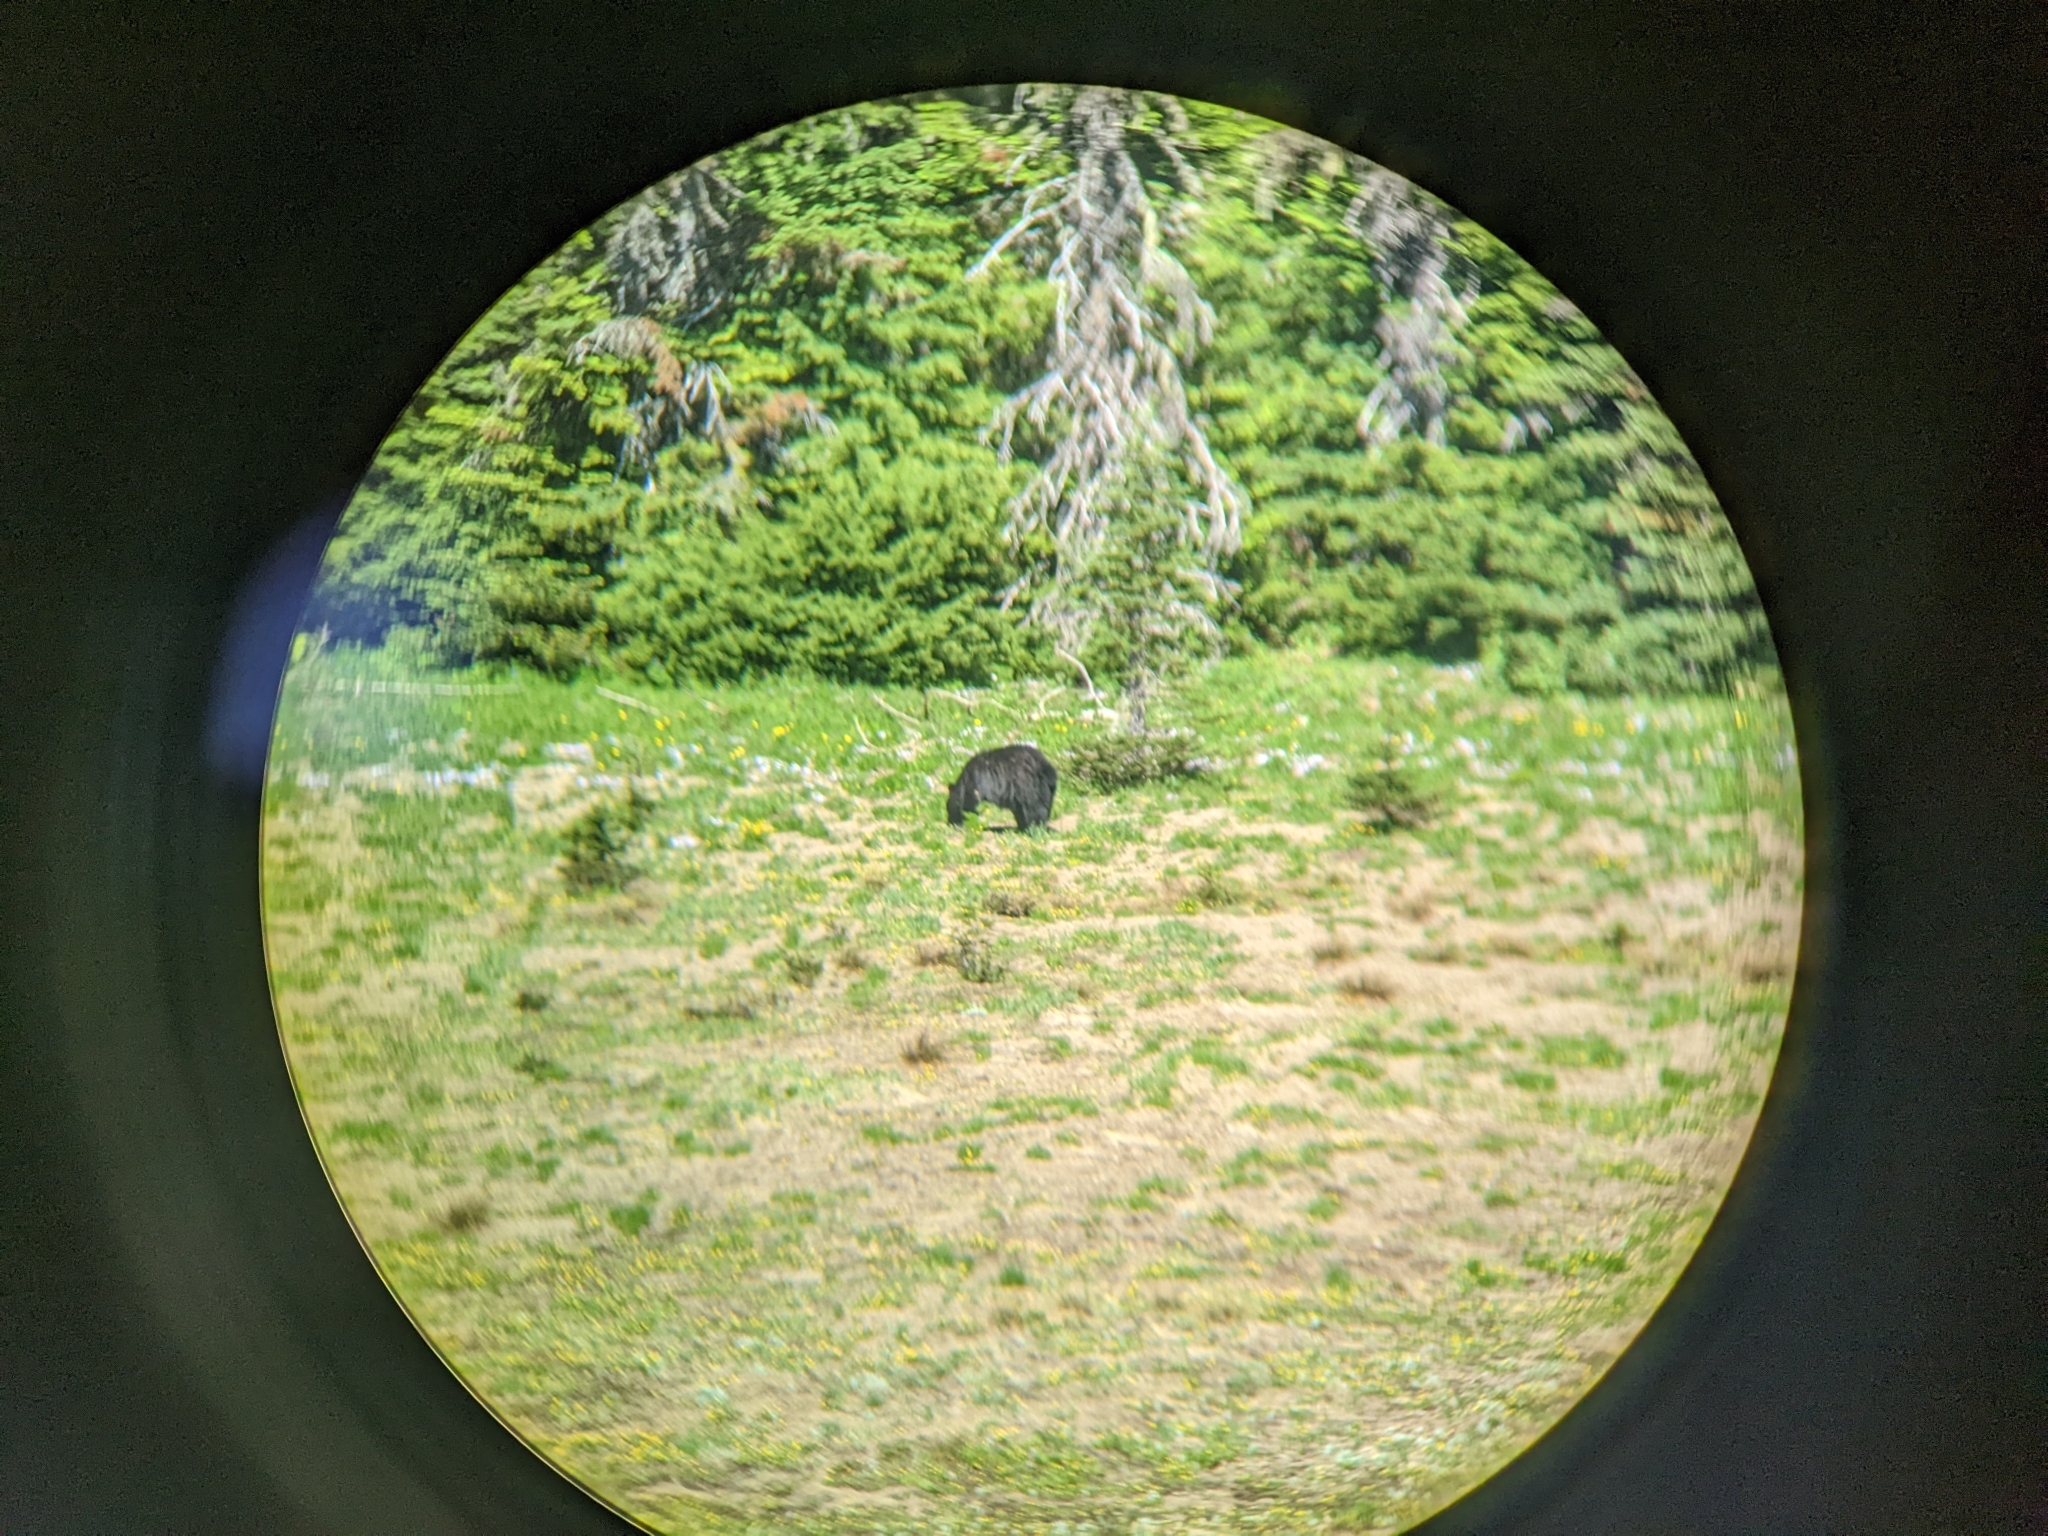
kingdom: Animalia
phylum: Chordata
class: Mammalia
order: Carnivora
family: Ursidae
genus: Ursus
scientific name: Ursus americanus
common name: American black bear
